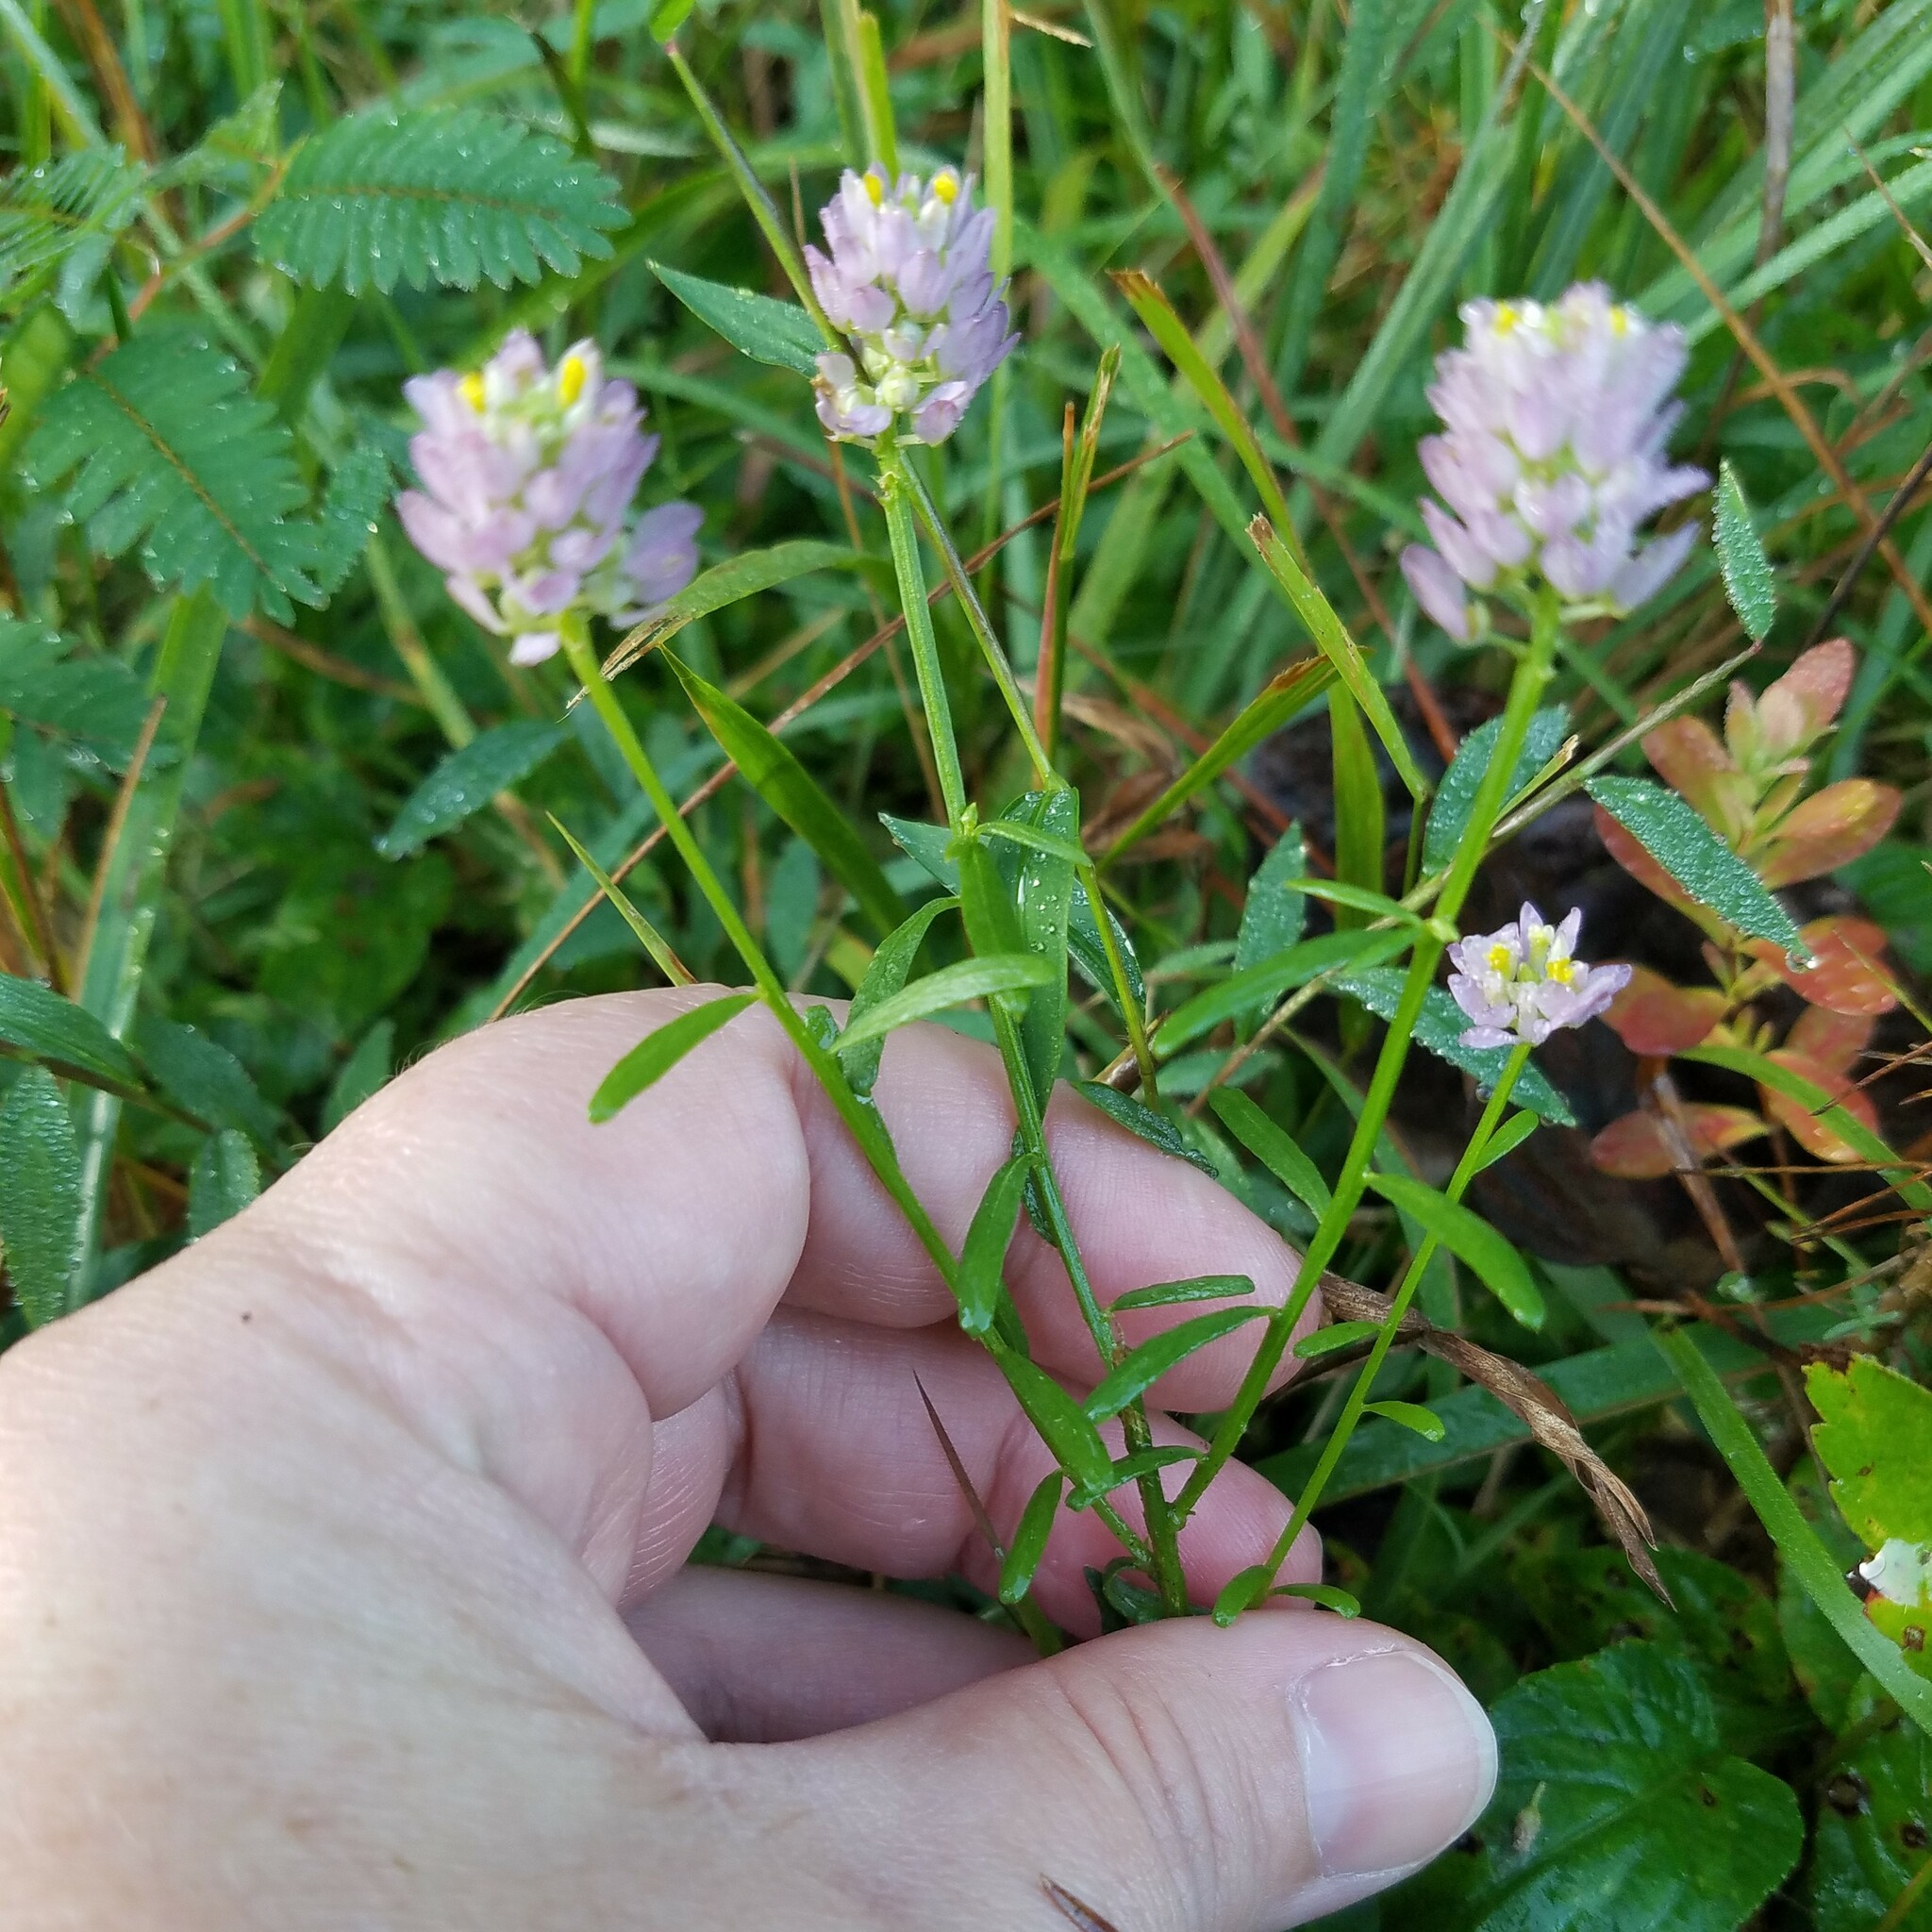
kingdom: Plantae
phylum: Tracheophyta
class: Magnoliopsida
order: Fabales
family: Polygalaceae
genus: Polygala
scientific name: Polygala curtissii
